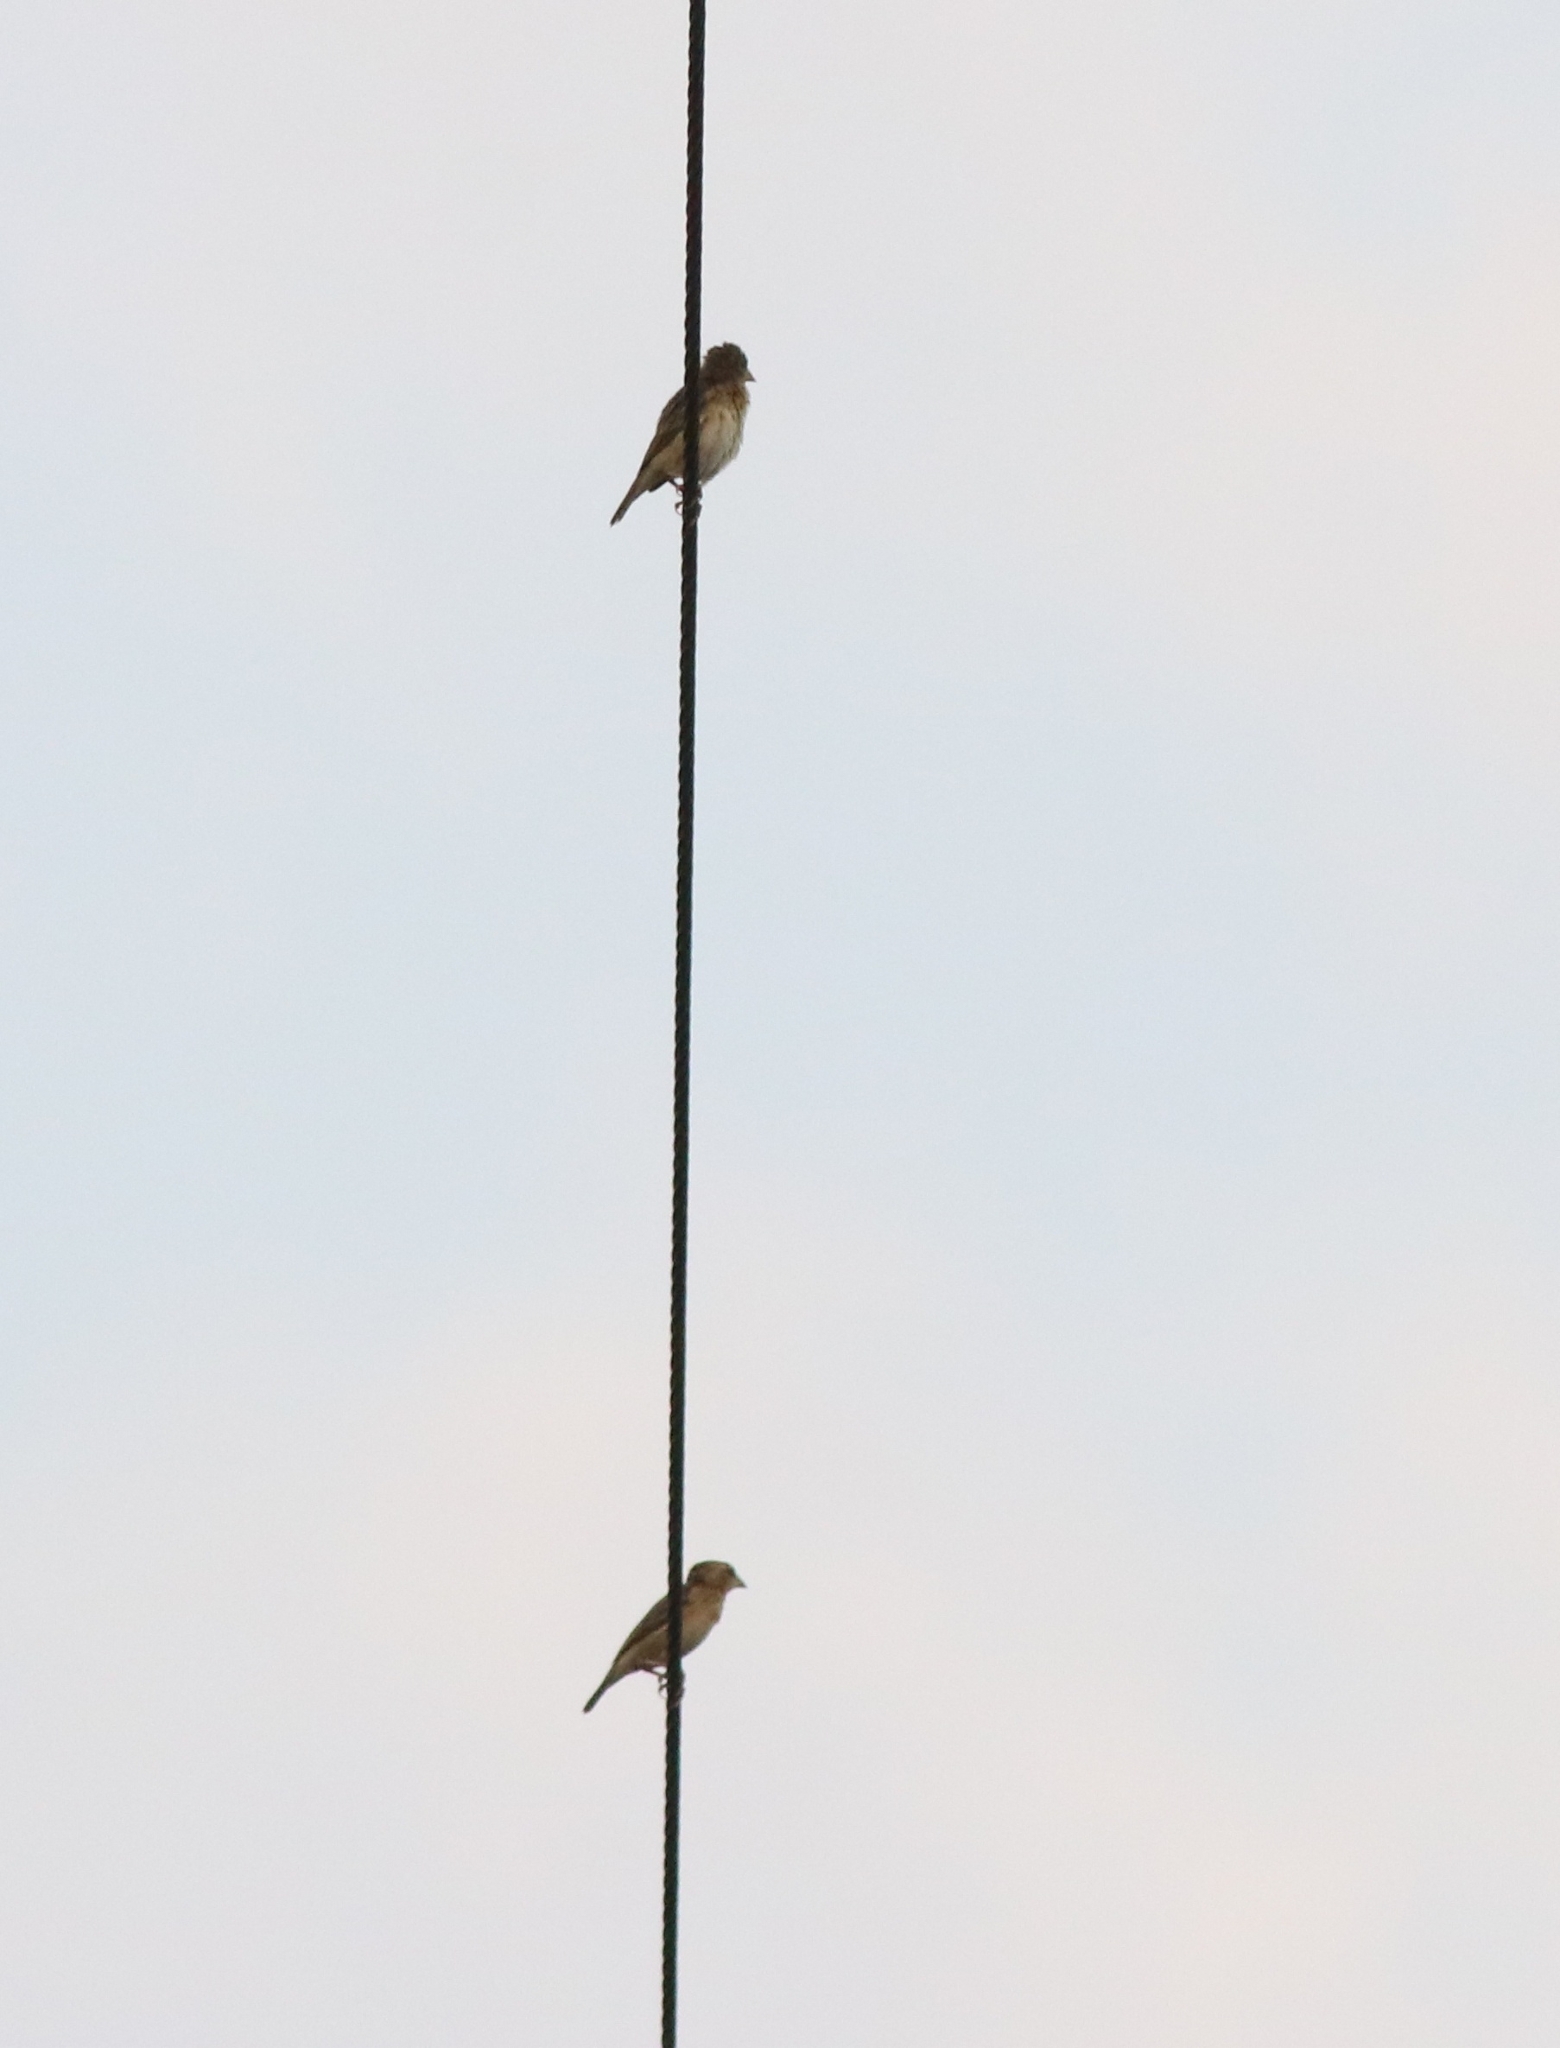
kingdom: Animalia
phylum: Chordata
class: Aves
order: Passeriformes
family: Ploceidae
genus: Ploceus
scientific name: Ploceus philippinus
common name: Baya weaver
